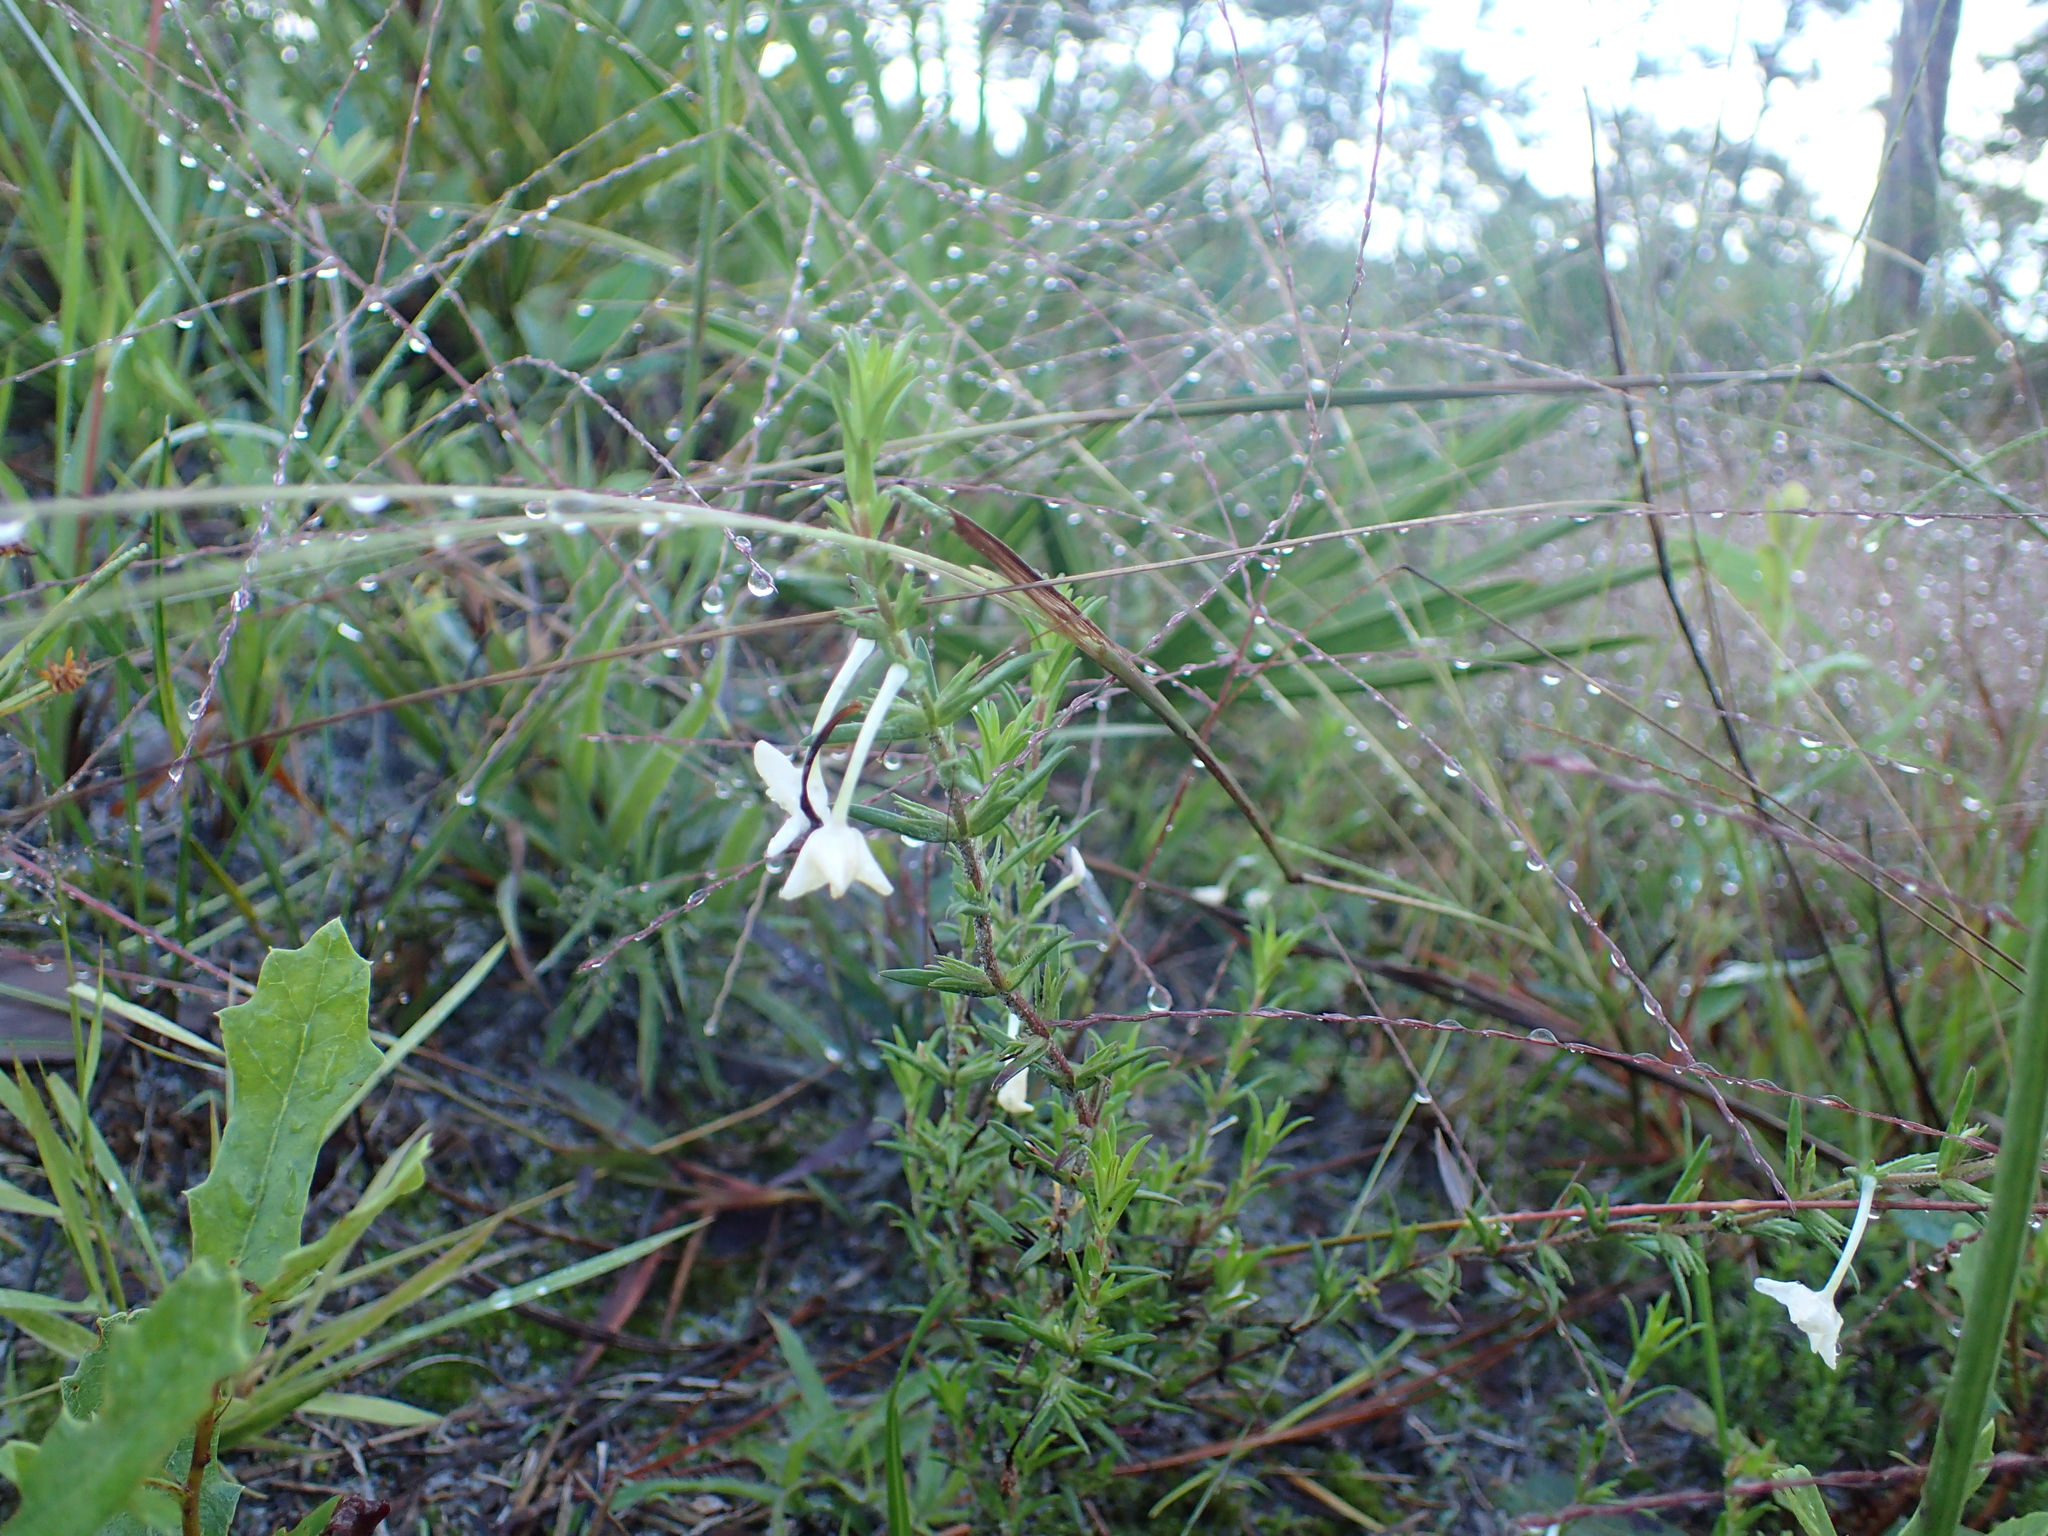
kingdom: Plantae
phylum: Tracheophyta
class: Magnoliopsida
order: Lamiales
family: Plantaginaceae
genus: Gratiola
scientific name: Gratiola hispida
